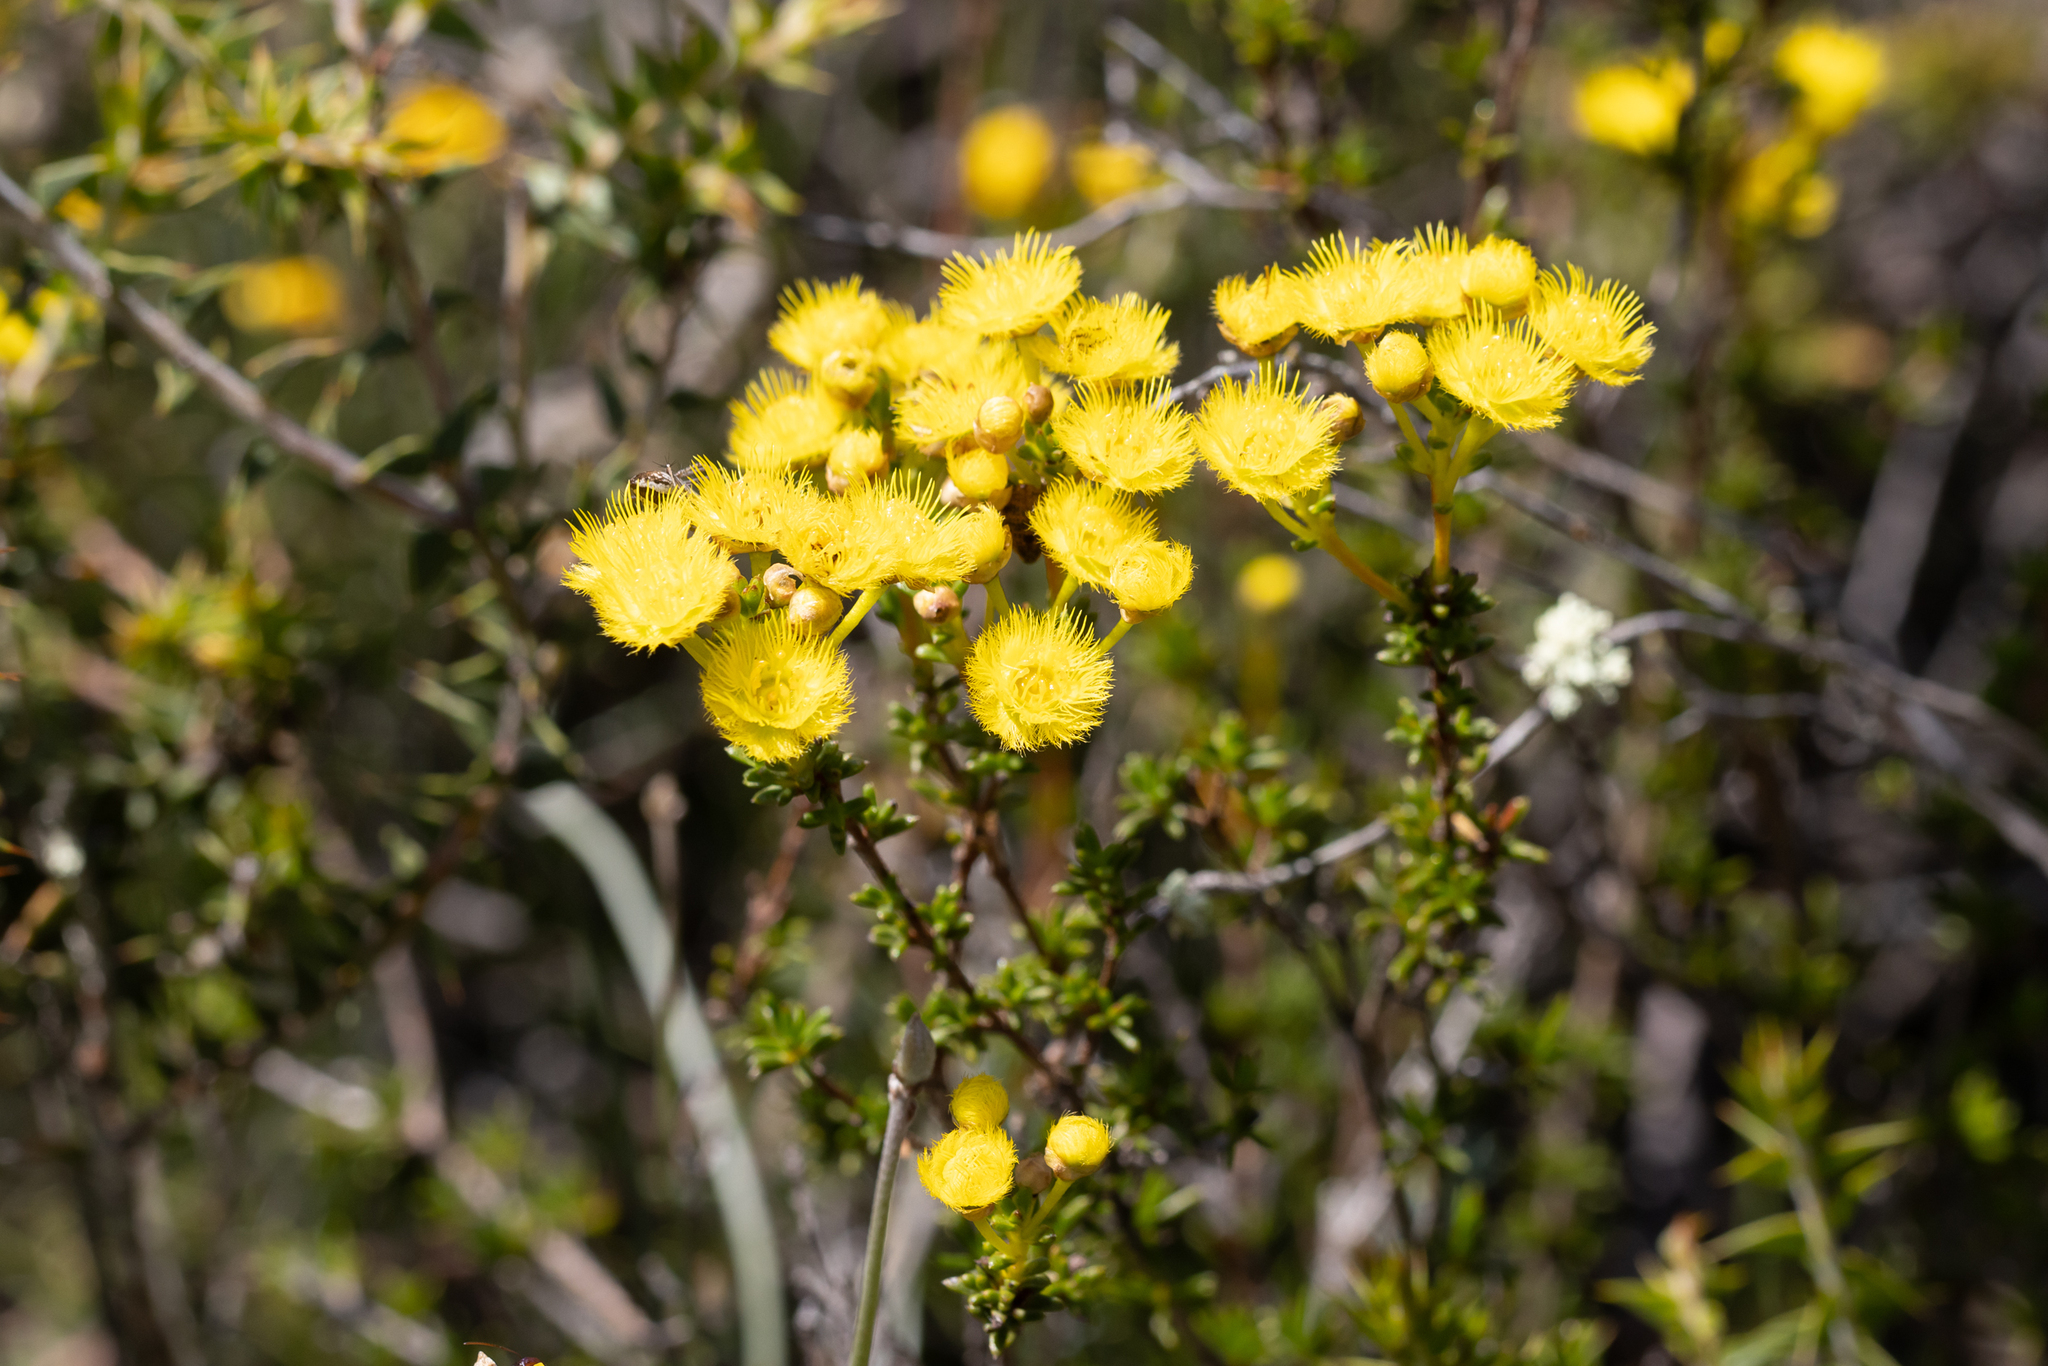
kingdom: Plantae
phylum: Tracheophyta
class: Magnoliopsida
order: Myrtales
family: Myrtaceae
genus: Verticordia
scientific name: Verticordia brevifolia
